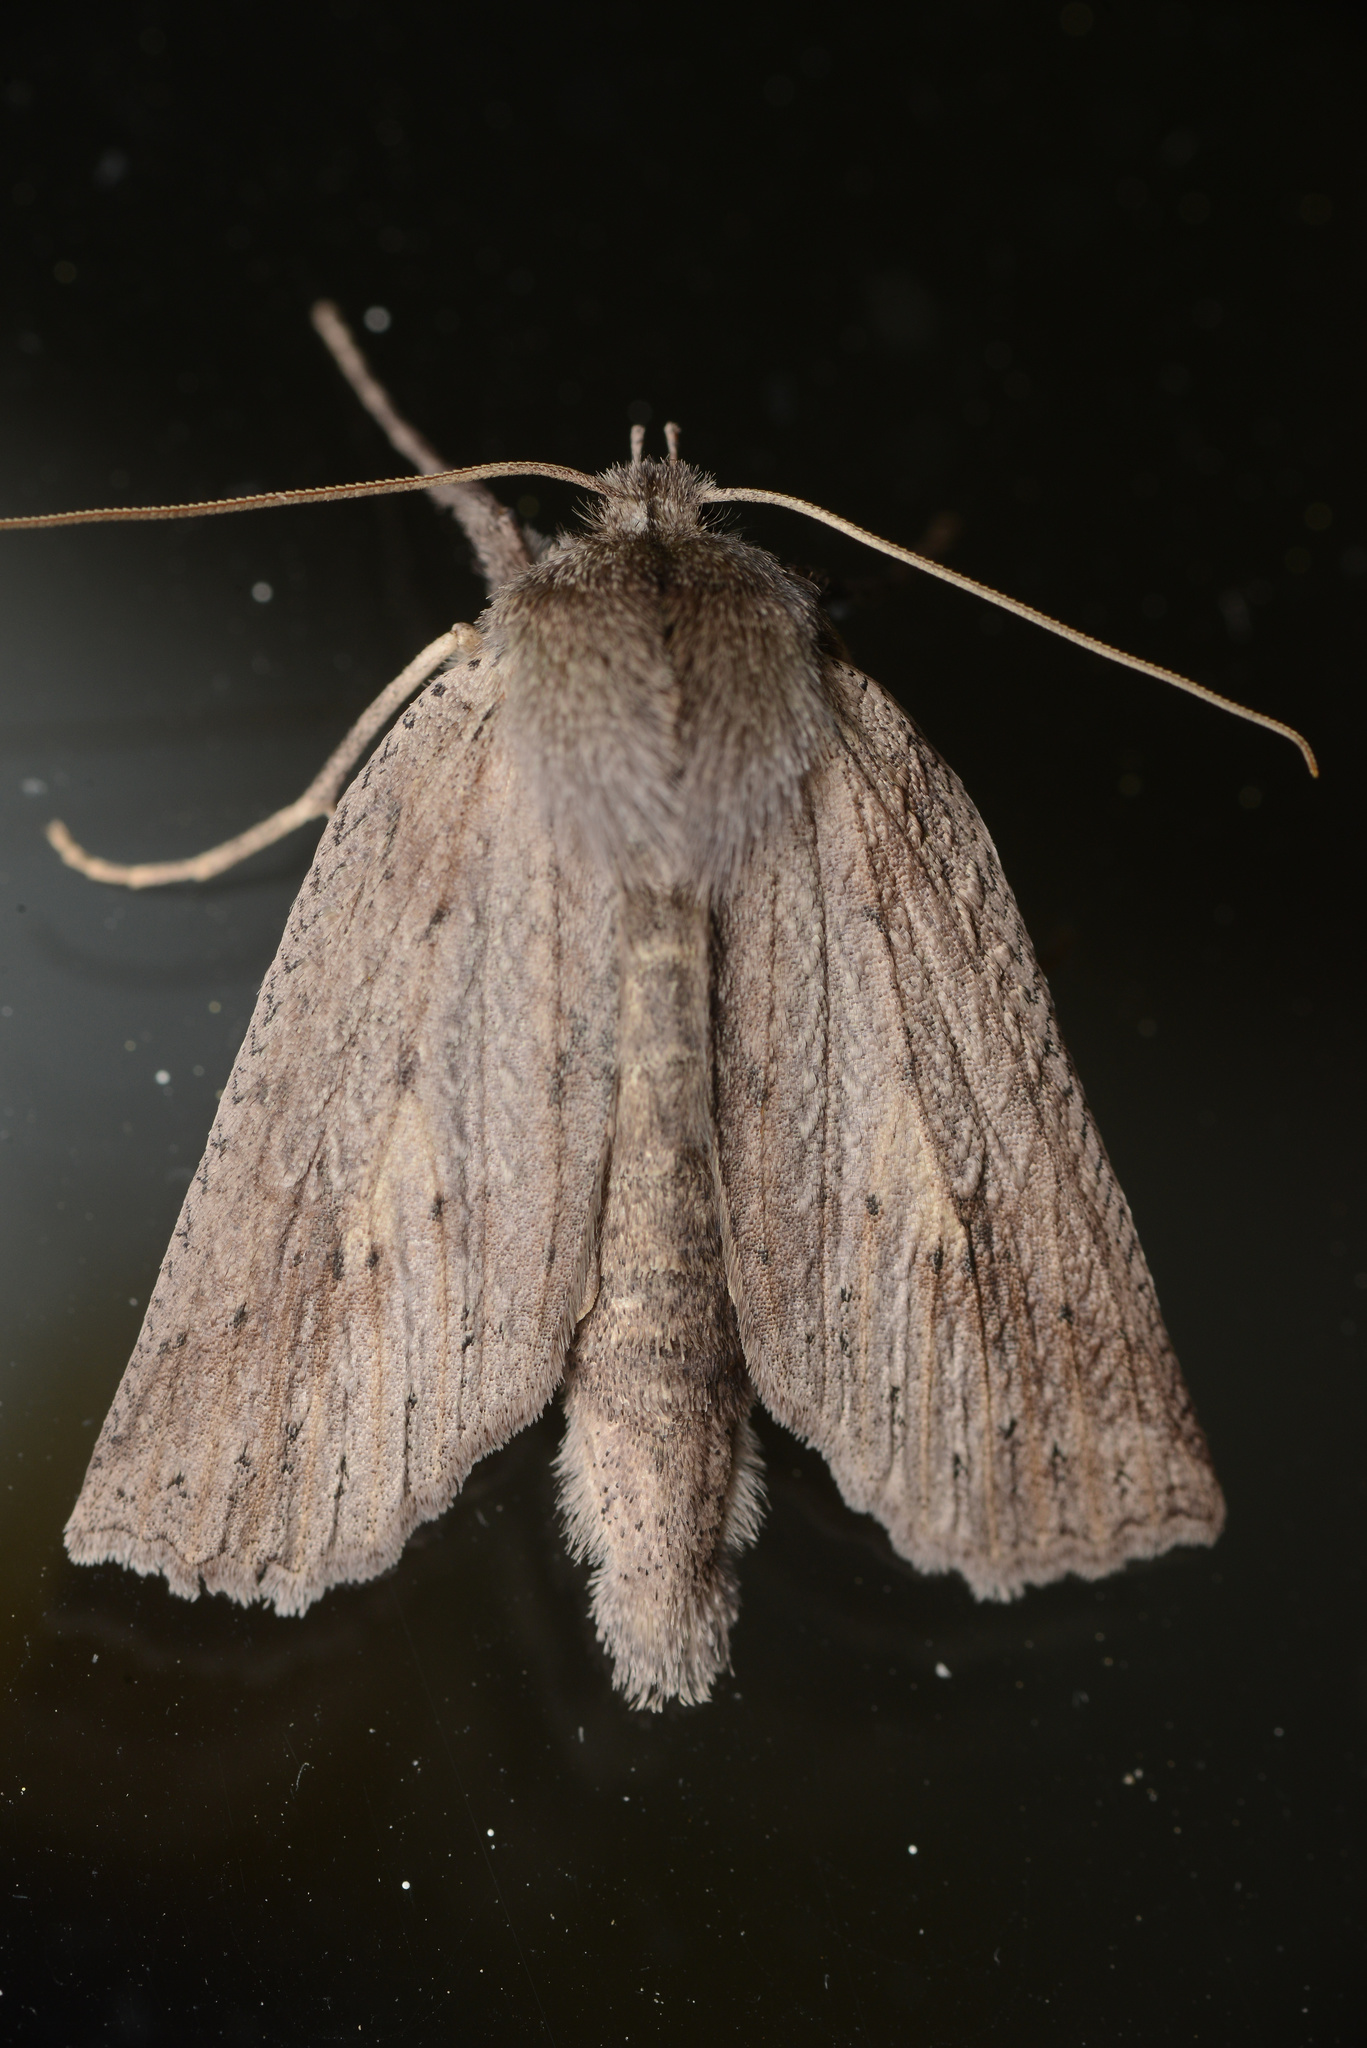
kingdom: Animalia
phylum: Arthropoda
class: Insecta
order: Lepidoptera
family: Geometridae
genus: Declana
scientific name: Declana leptomera
